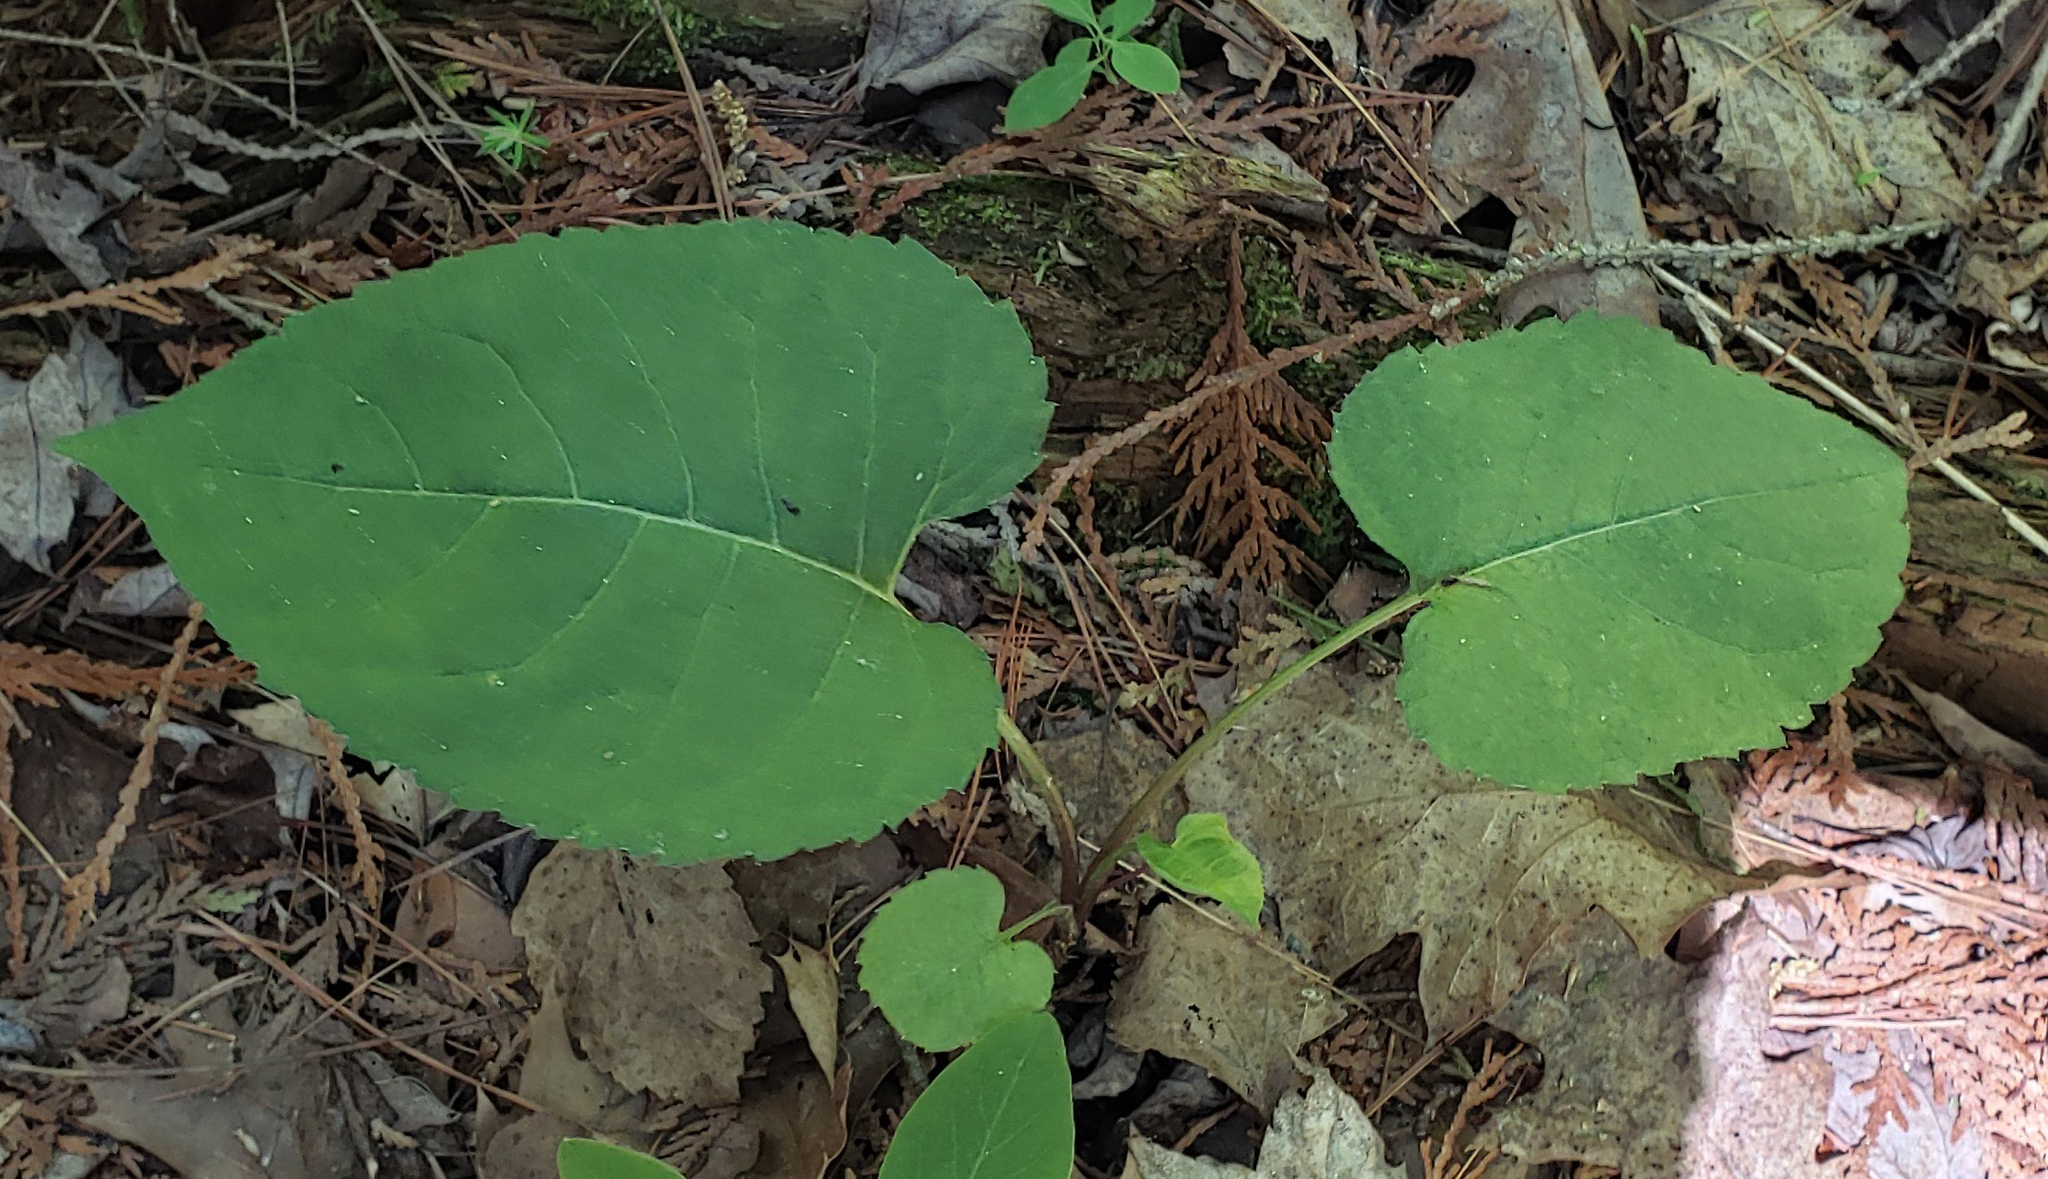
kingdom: Plantae
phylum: Tracheophyta
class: Magnoliopsida
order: Asterales
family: Asteraceae
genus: Eurybia
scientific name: Eurybia macrophylla
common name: Big-leaved aster
